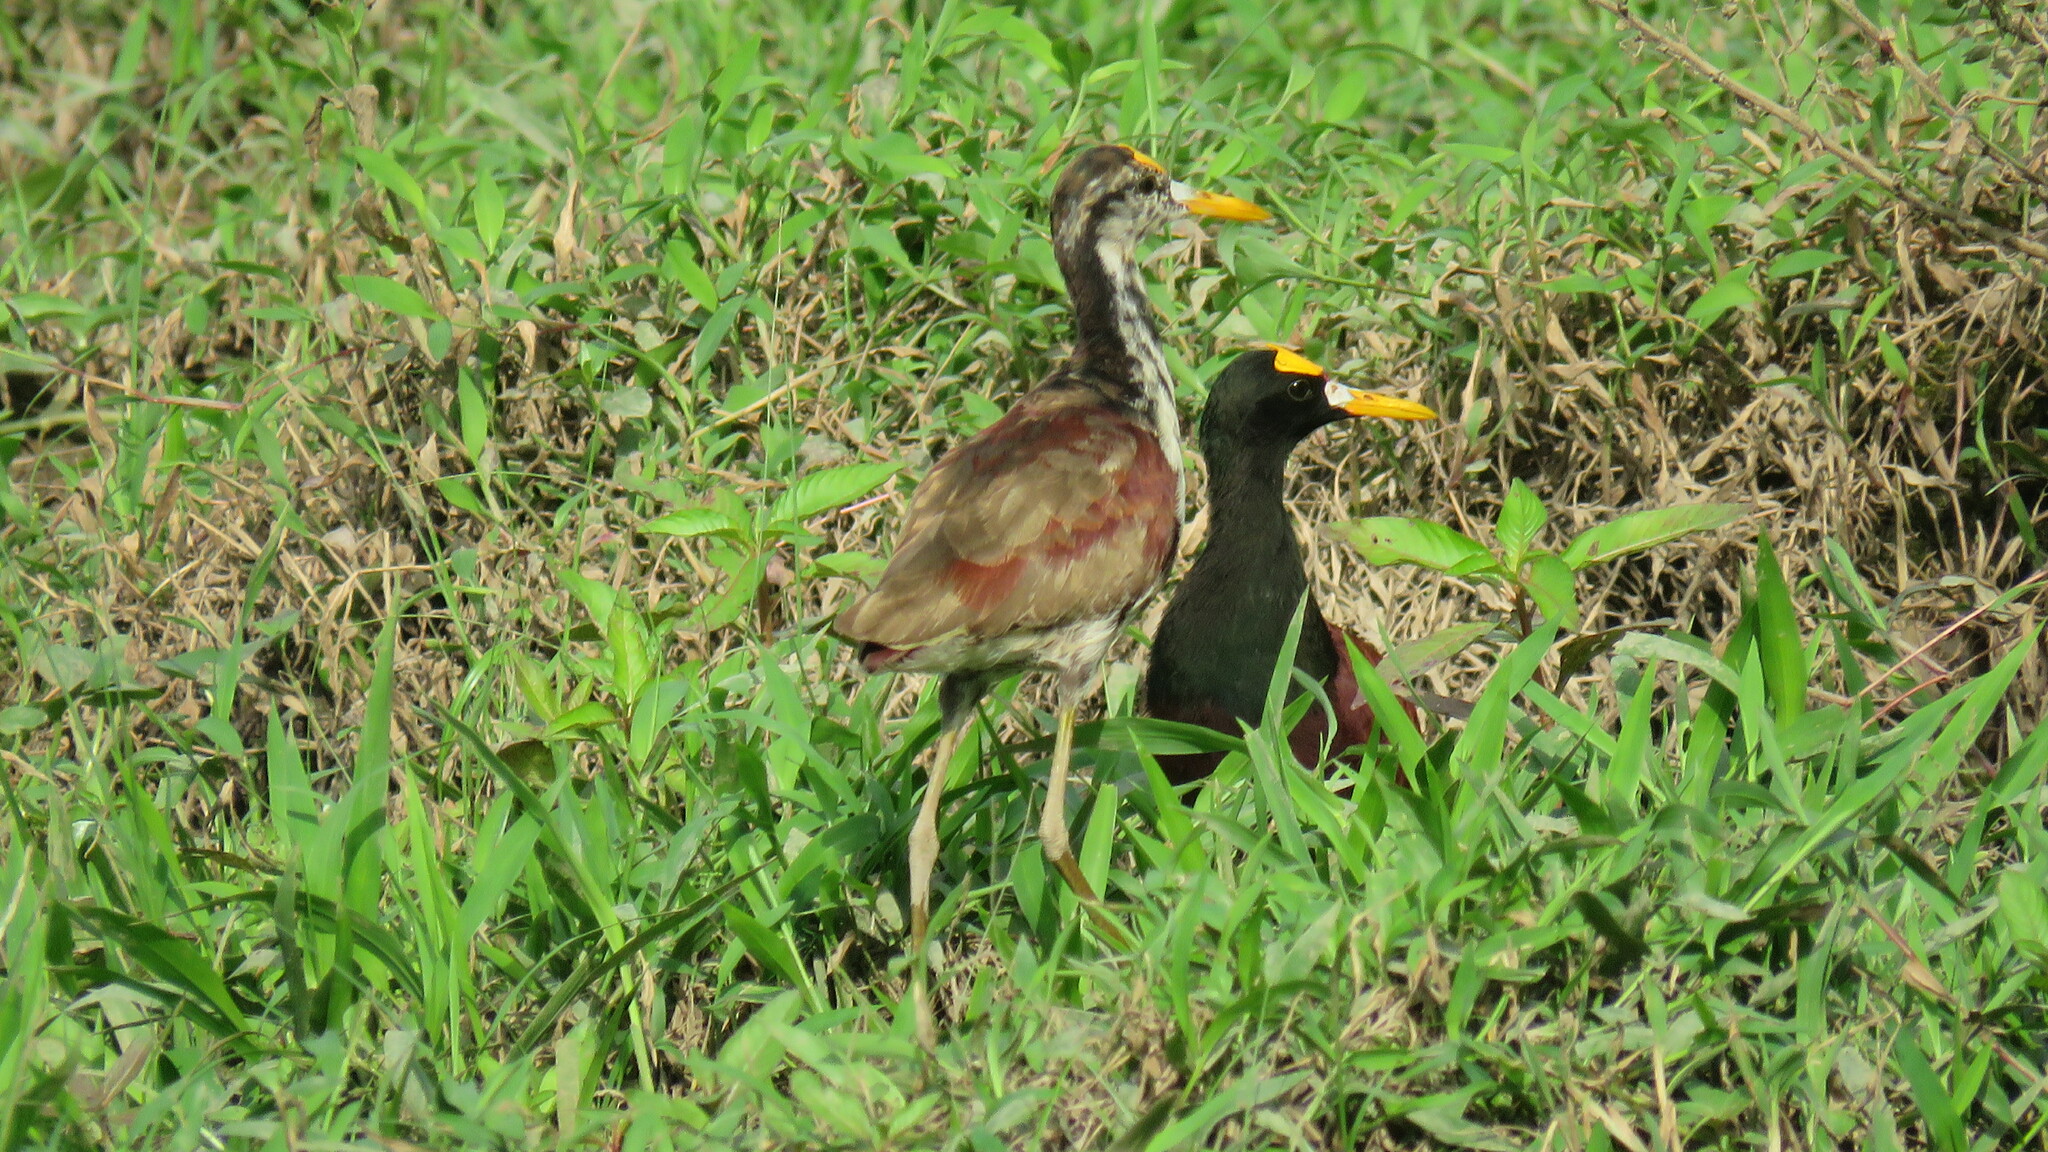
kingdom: Animalia
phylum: Chordata
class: Aves
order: Charadriiformes
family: Jacanidae
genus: Jacana
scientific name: Jacana spinosa
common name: Northern jacana
